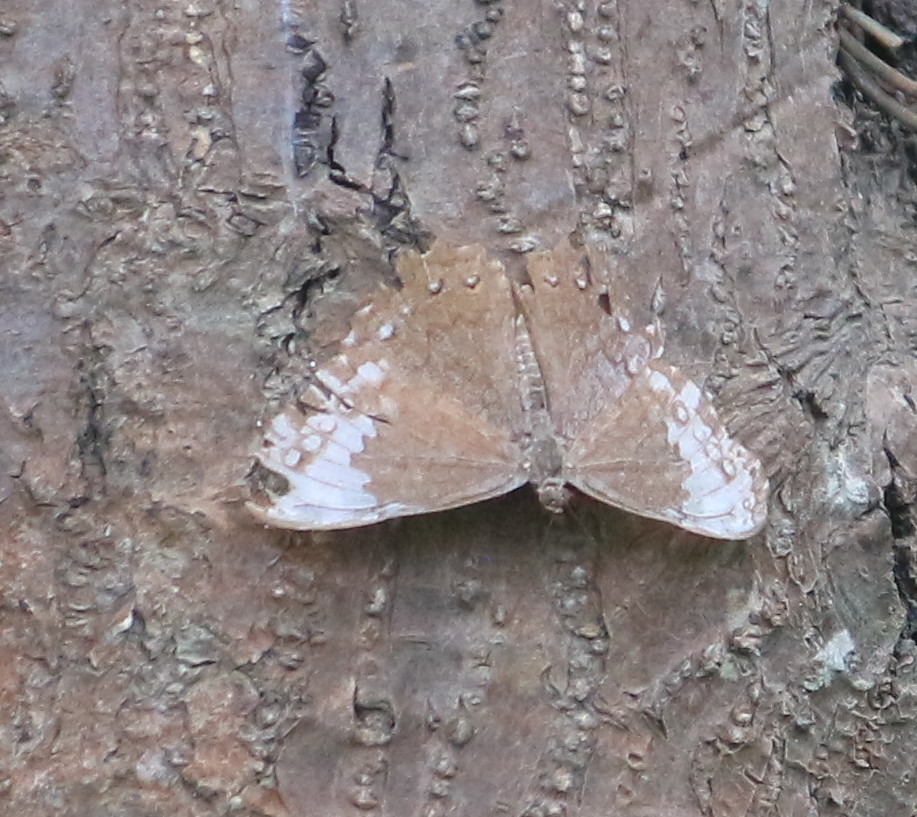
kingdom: Animalia
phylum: Arthropoda
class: Insecta
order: Lepidoptera
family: Nymphalidae
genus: Hamadryas
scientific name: Hamadryas glauconome
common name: Glaucous cracker
